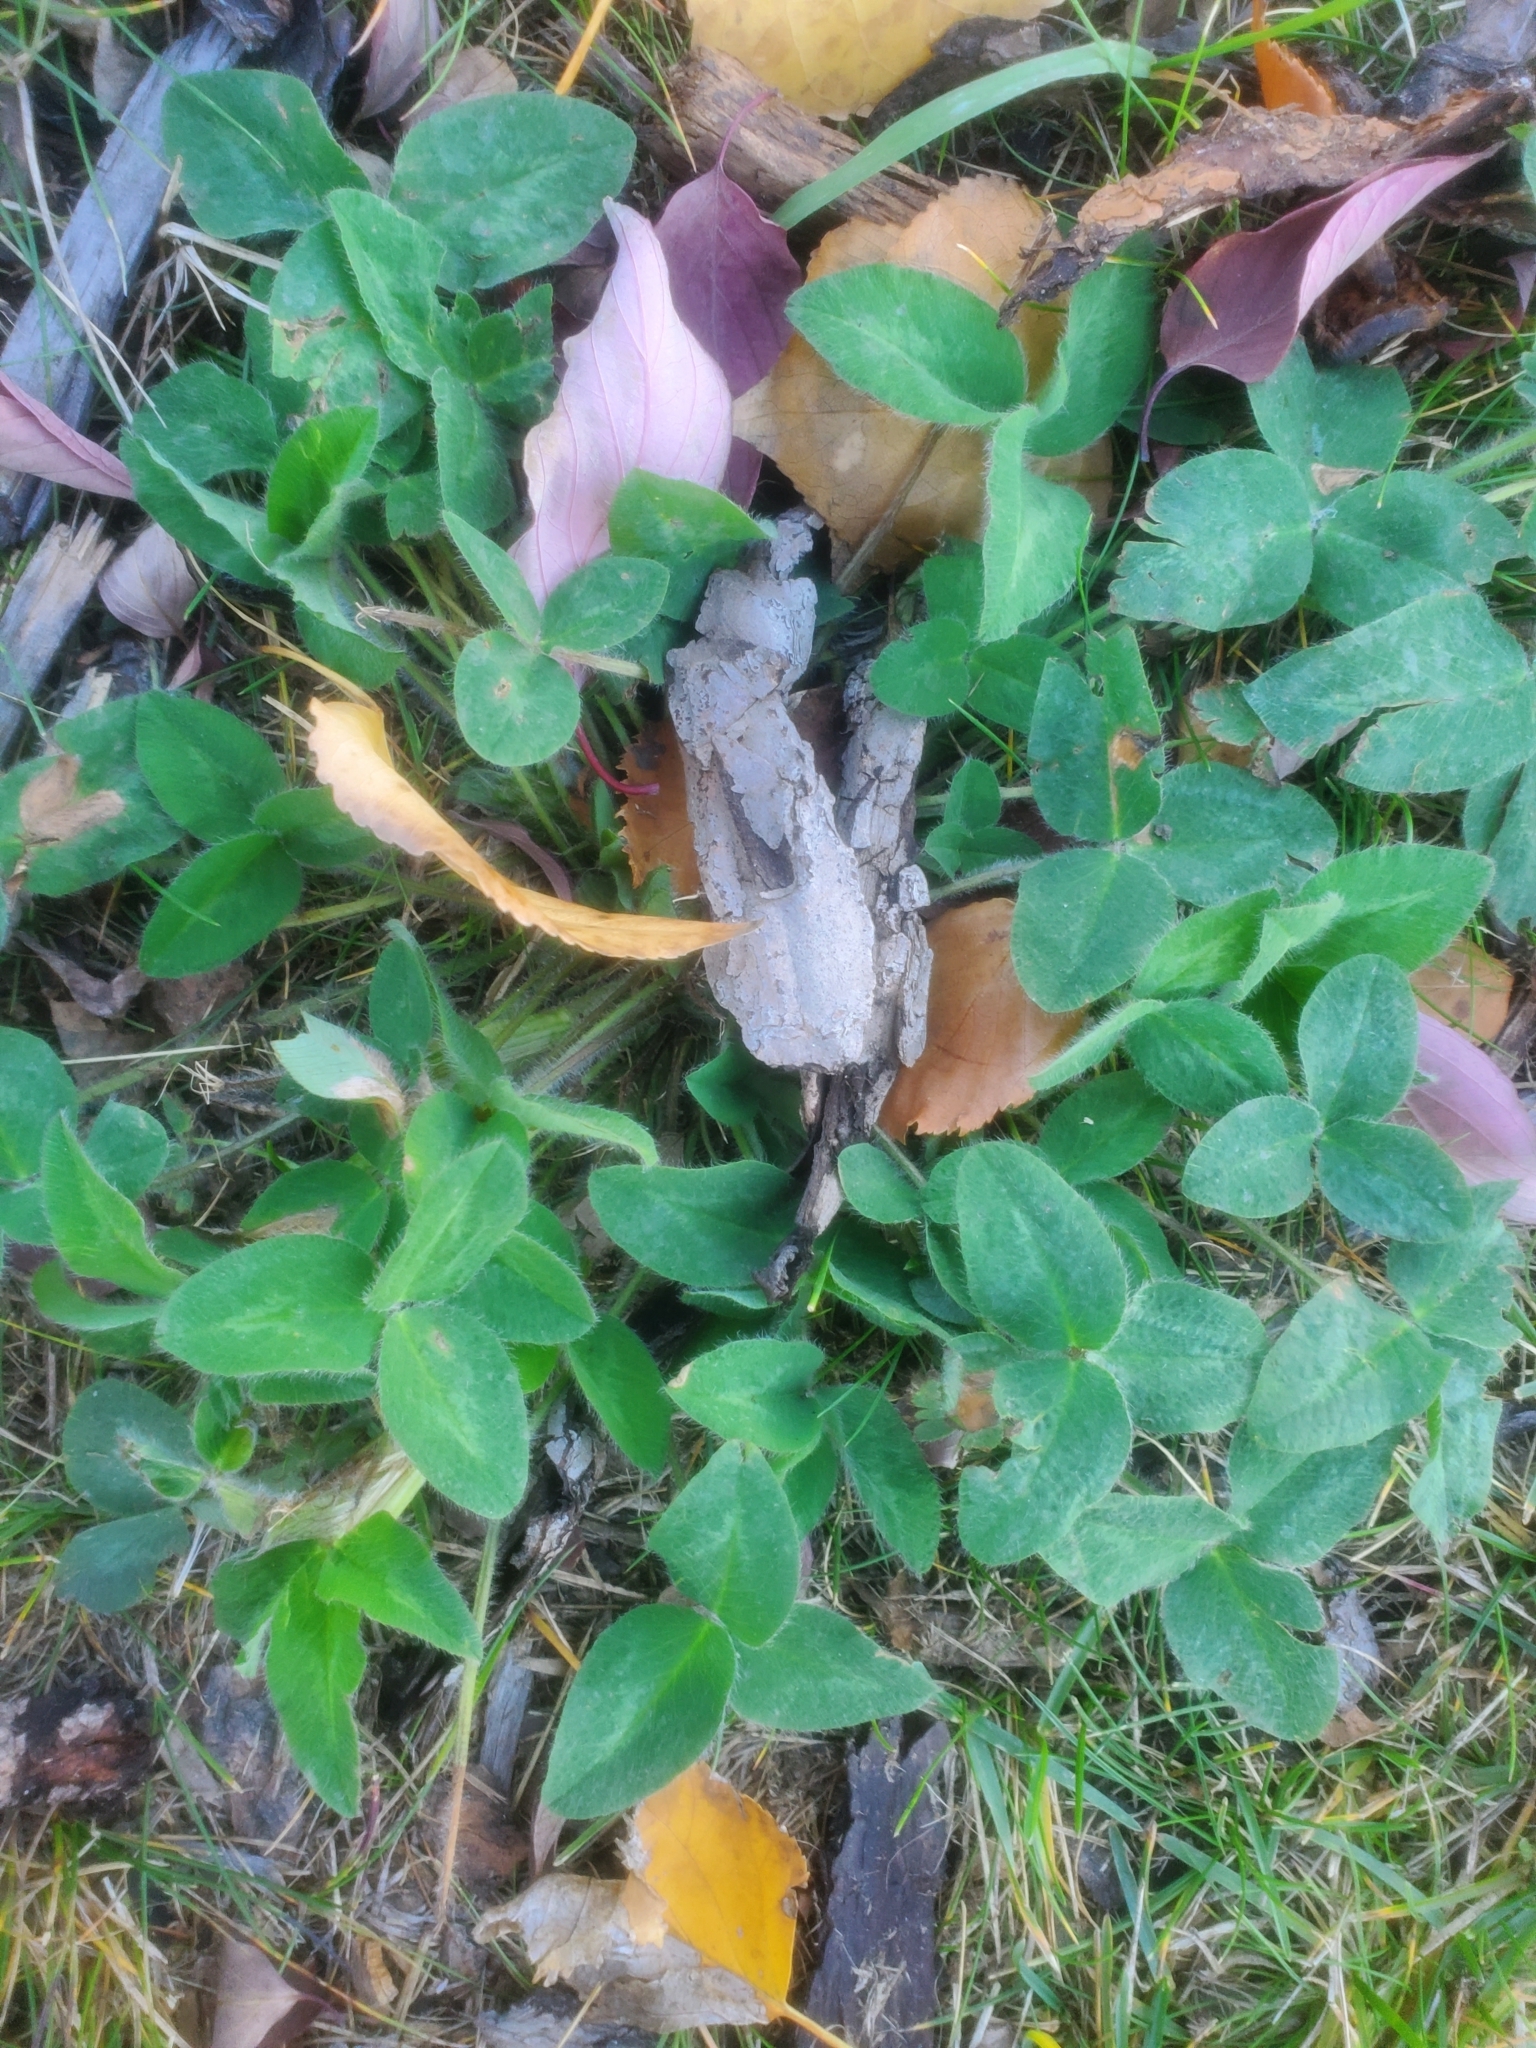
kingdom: Plantae
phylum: Tracheophyta
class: Magnoliopsida
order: Fabales
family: Fabaceae
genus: Trifolium
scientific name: Trifolium pratense
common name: Red clover
